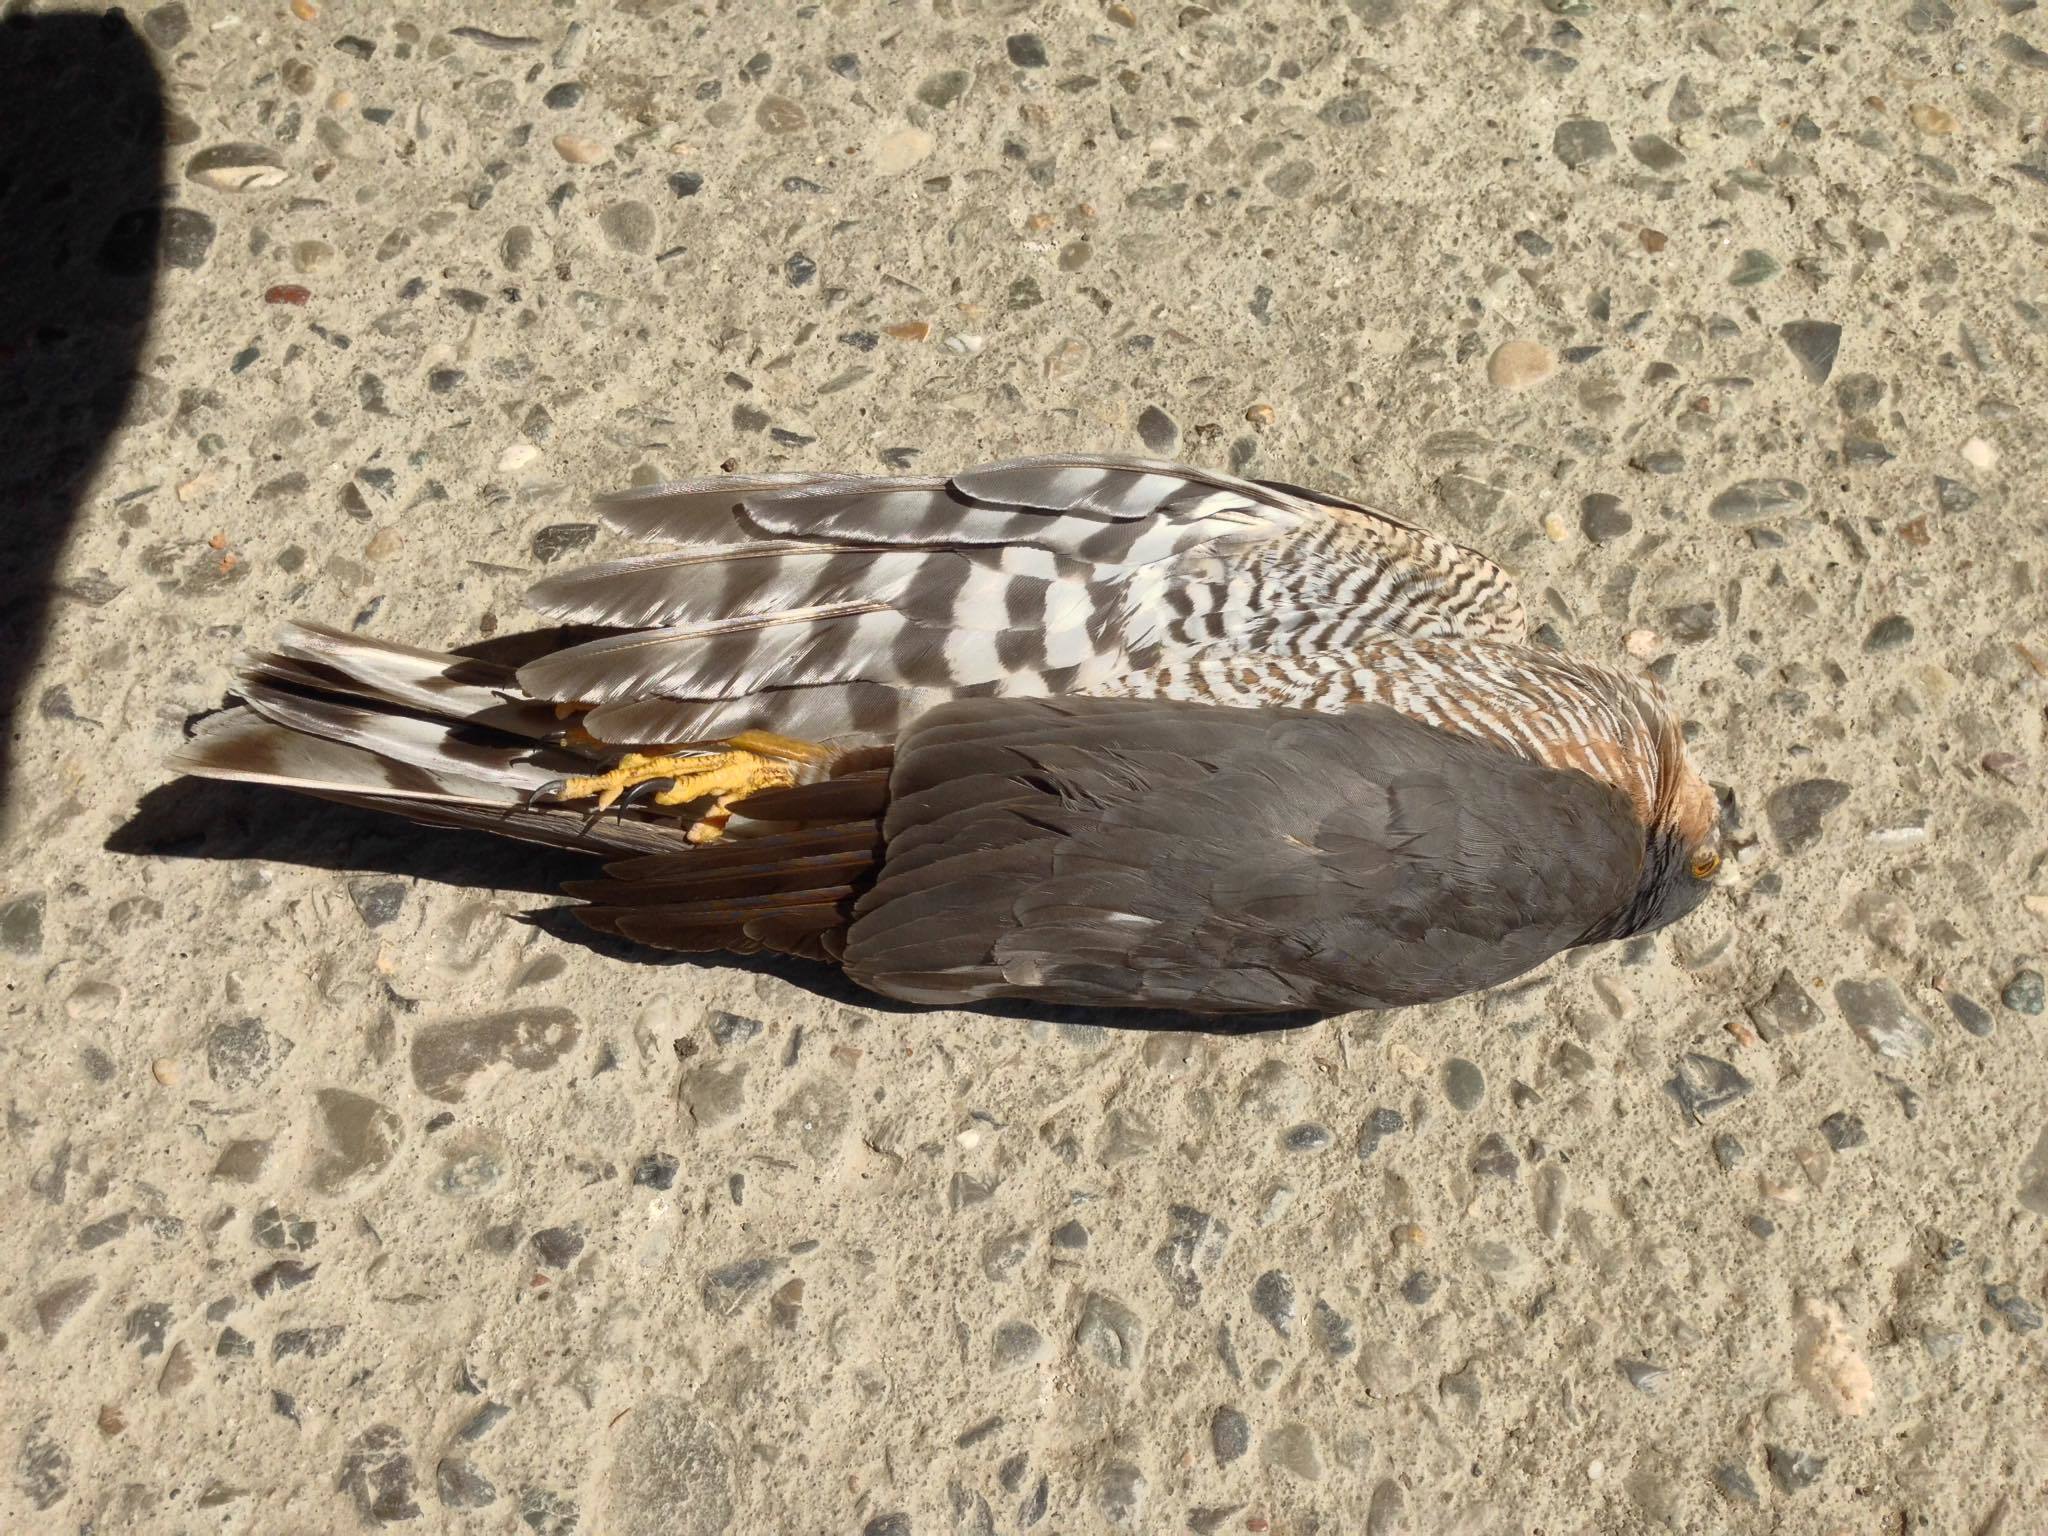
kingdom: Animalia
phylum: Chordata
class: Aves
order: Accipitriformes
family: Accipitridae
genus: Accipiter
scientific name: Accipiter nisus
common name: Eurasian sparrowhawk
